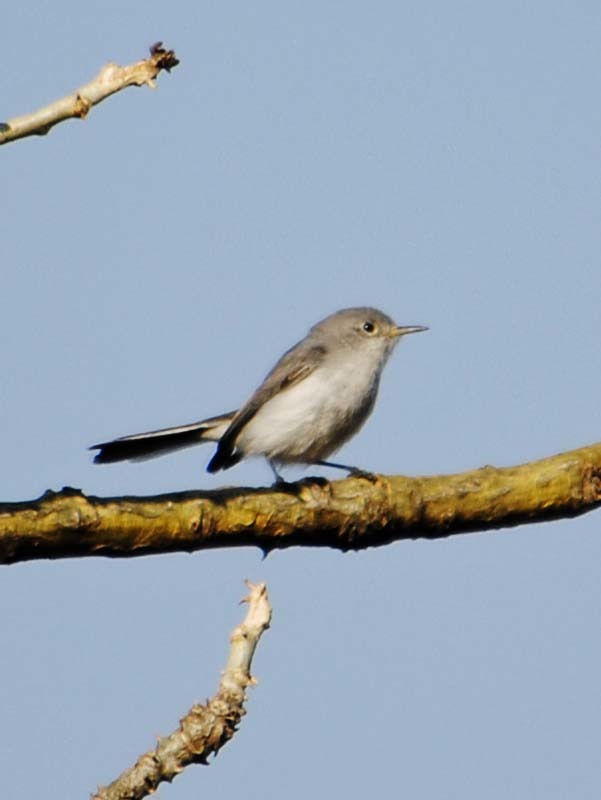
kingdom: Animalia
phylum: Chordata
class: Aves
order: Passeriformes
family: Polioptilidae
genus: Polioptila
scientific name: Polioptila caerulea
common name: Blue-gray gnatcatcher
